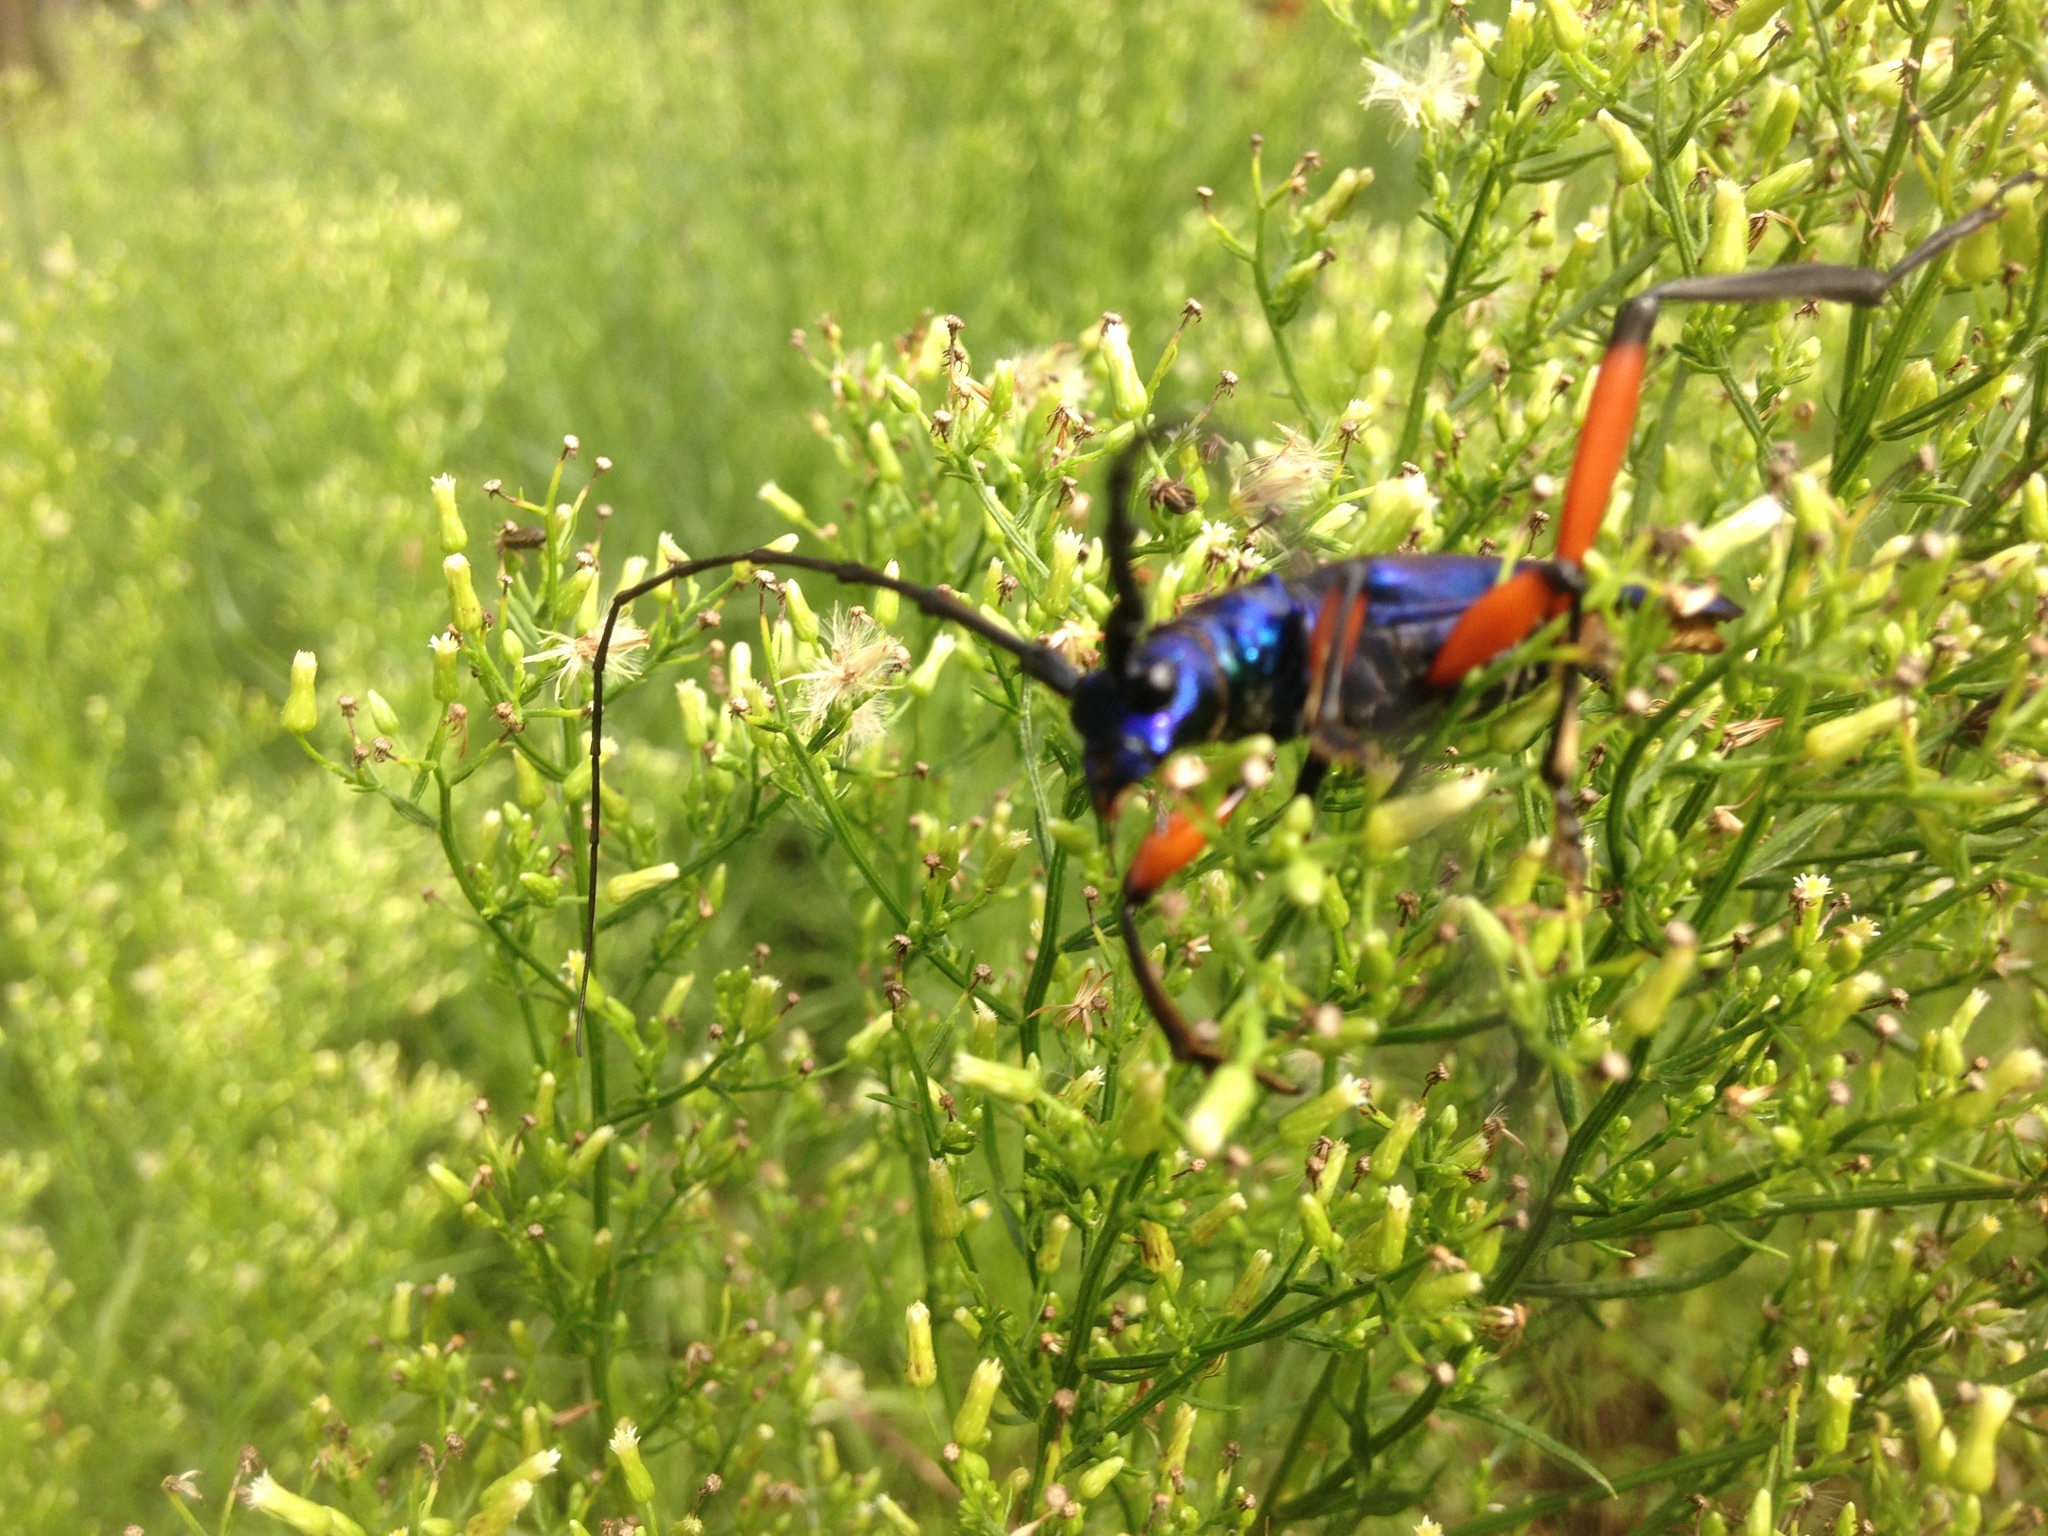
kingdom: Animalia
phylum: Arthropoda
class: Insecta
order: Coleoptera
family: Cerambycidae
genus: Plinthocoelium
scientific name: Plinthocoelium suaveolens
